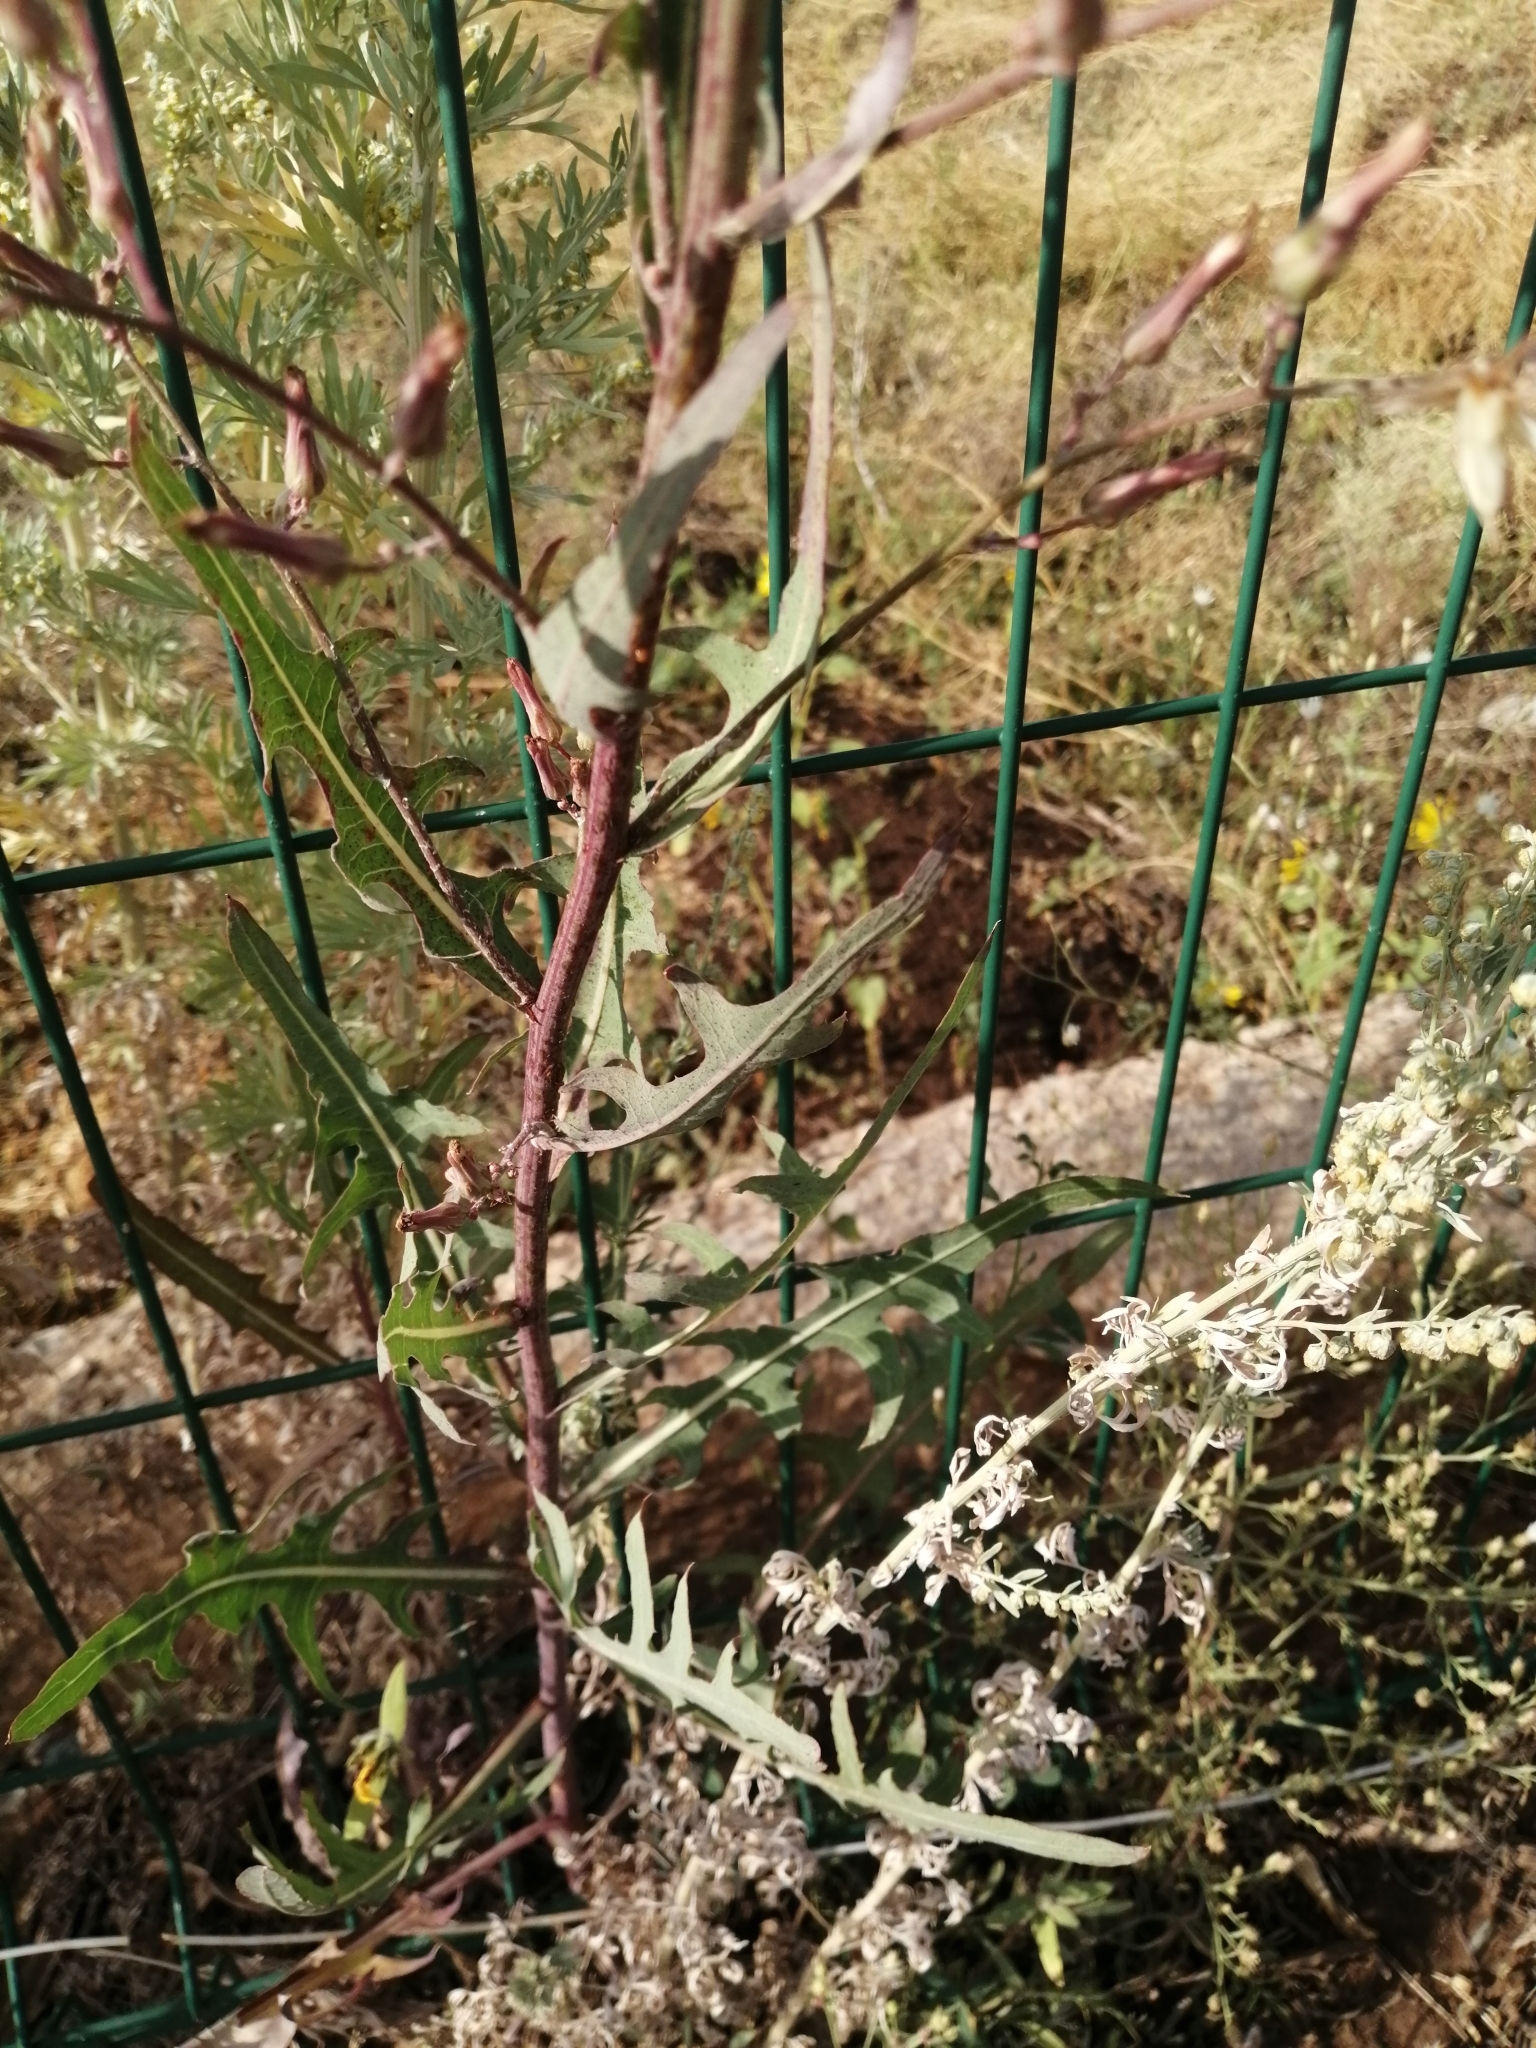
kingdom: Plantae
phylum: Tracheophyta
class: Magnoliopsida
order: Asterales
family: Asteraceae
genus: Lactuca
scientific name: Lactuca tatarica
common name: Blue lettuce
